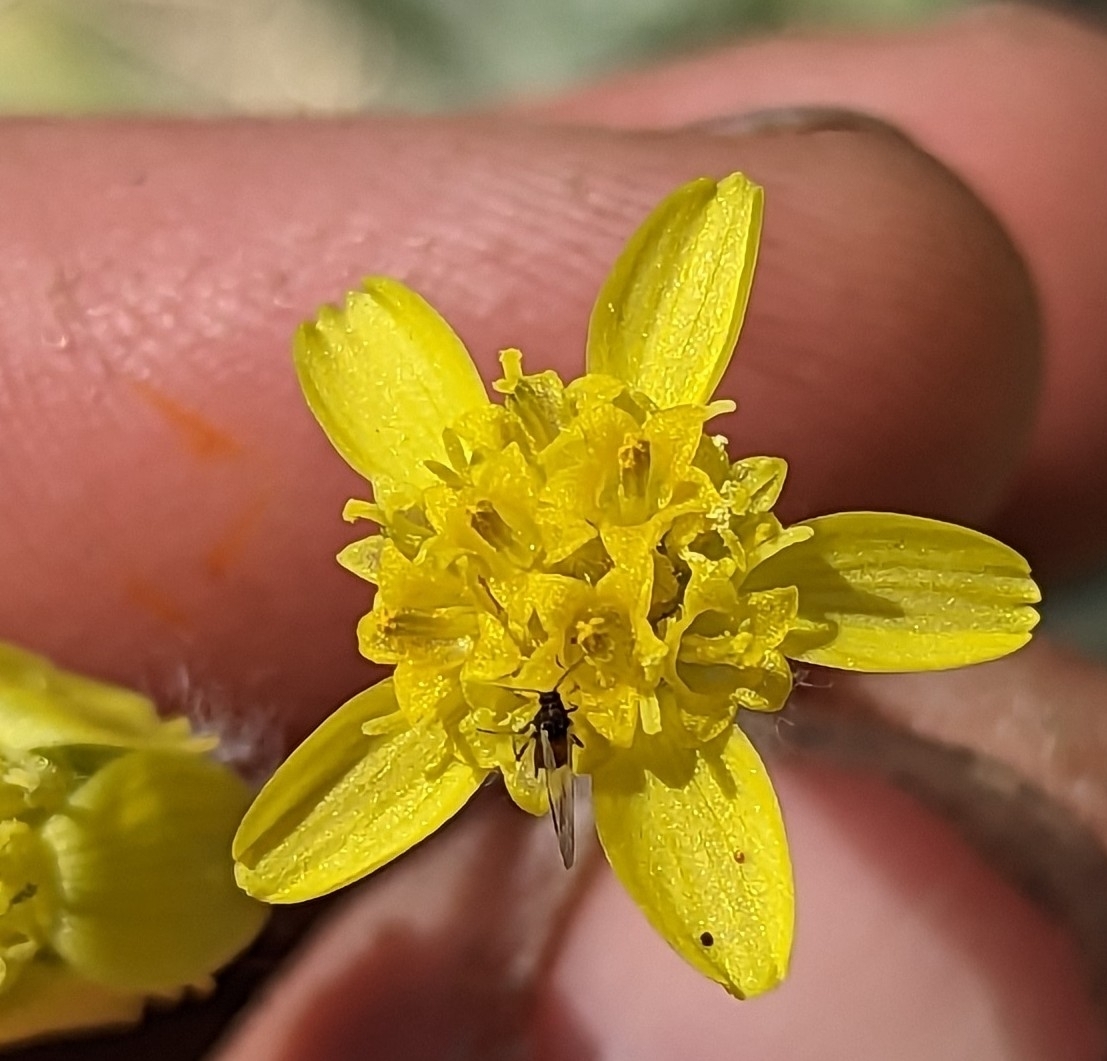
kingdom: Plantae
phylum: Tracheophyta
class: Magnoliopsida
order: Asterales
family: Asteraceae
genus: Baileya
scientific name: Baileya pauciradiata
